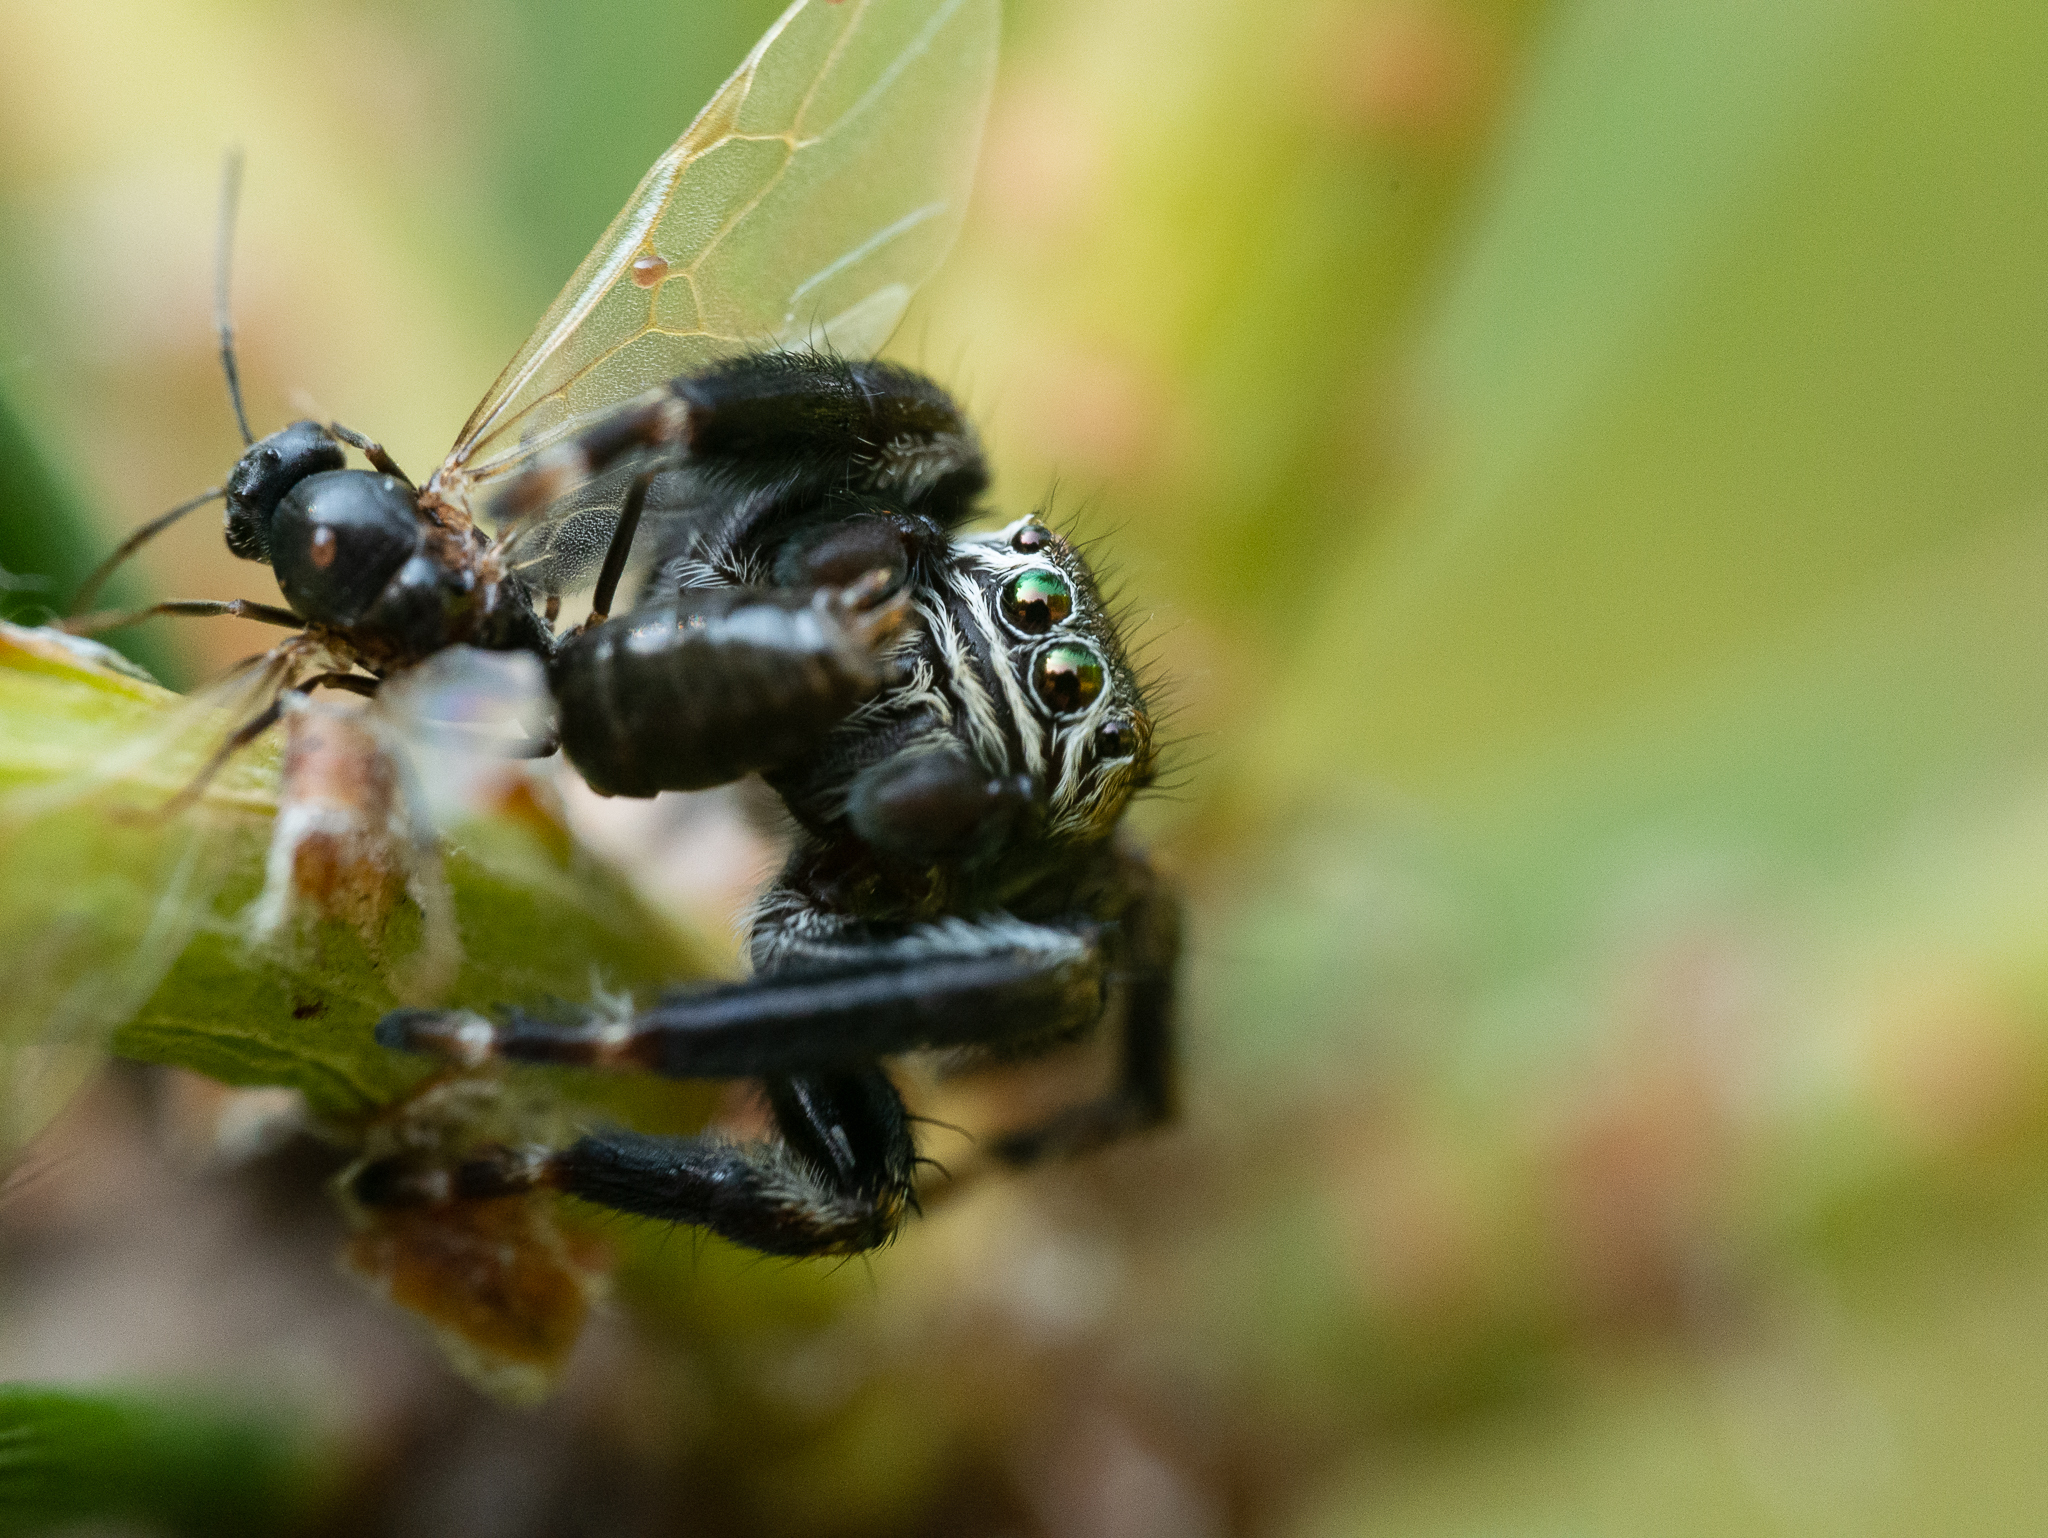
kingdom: Animalia
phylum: Arthropoda
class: Arachnida
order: Araneae
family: Salticidae
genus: Evarcha
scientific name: Evarcha arcuata
